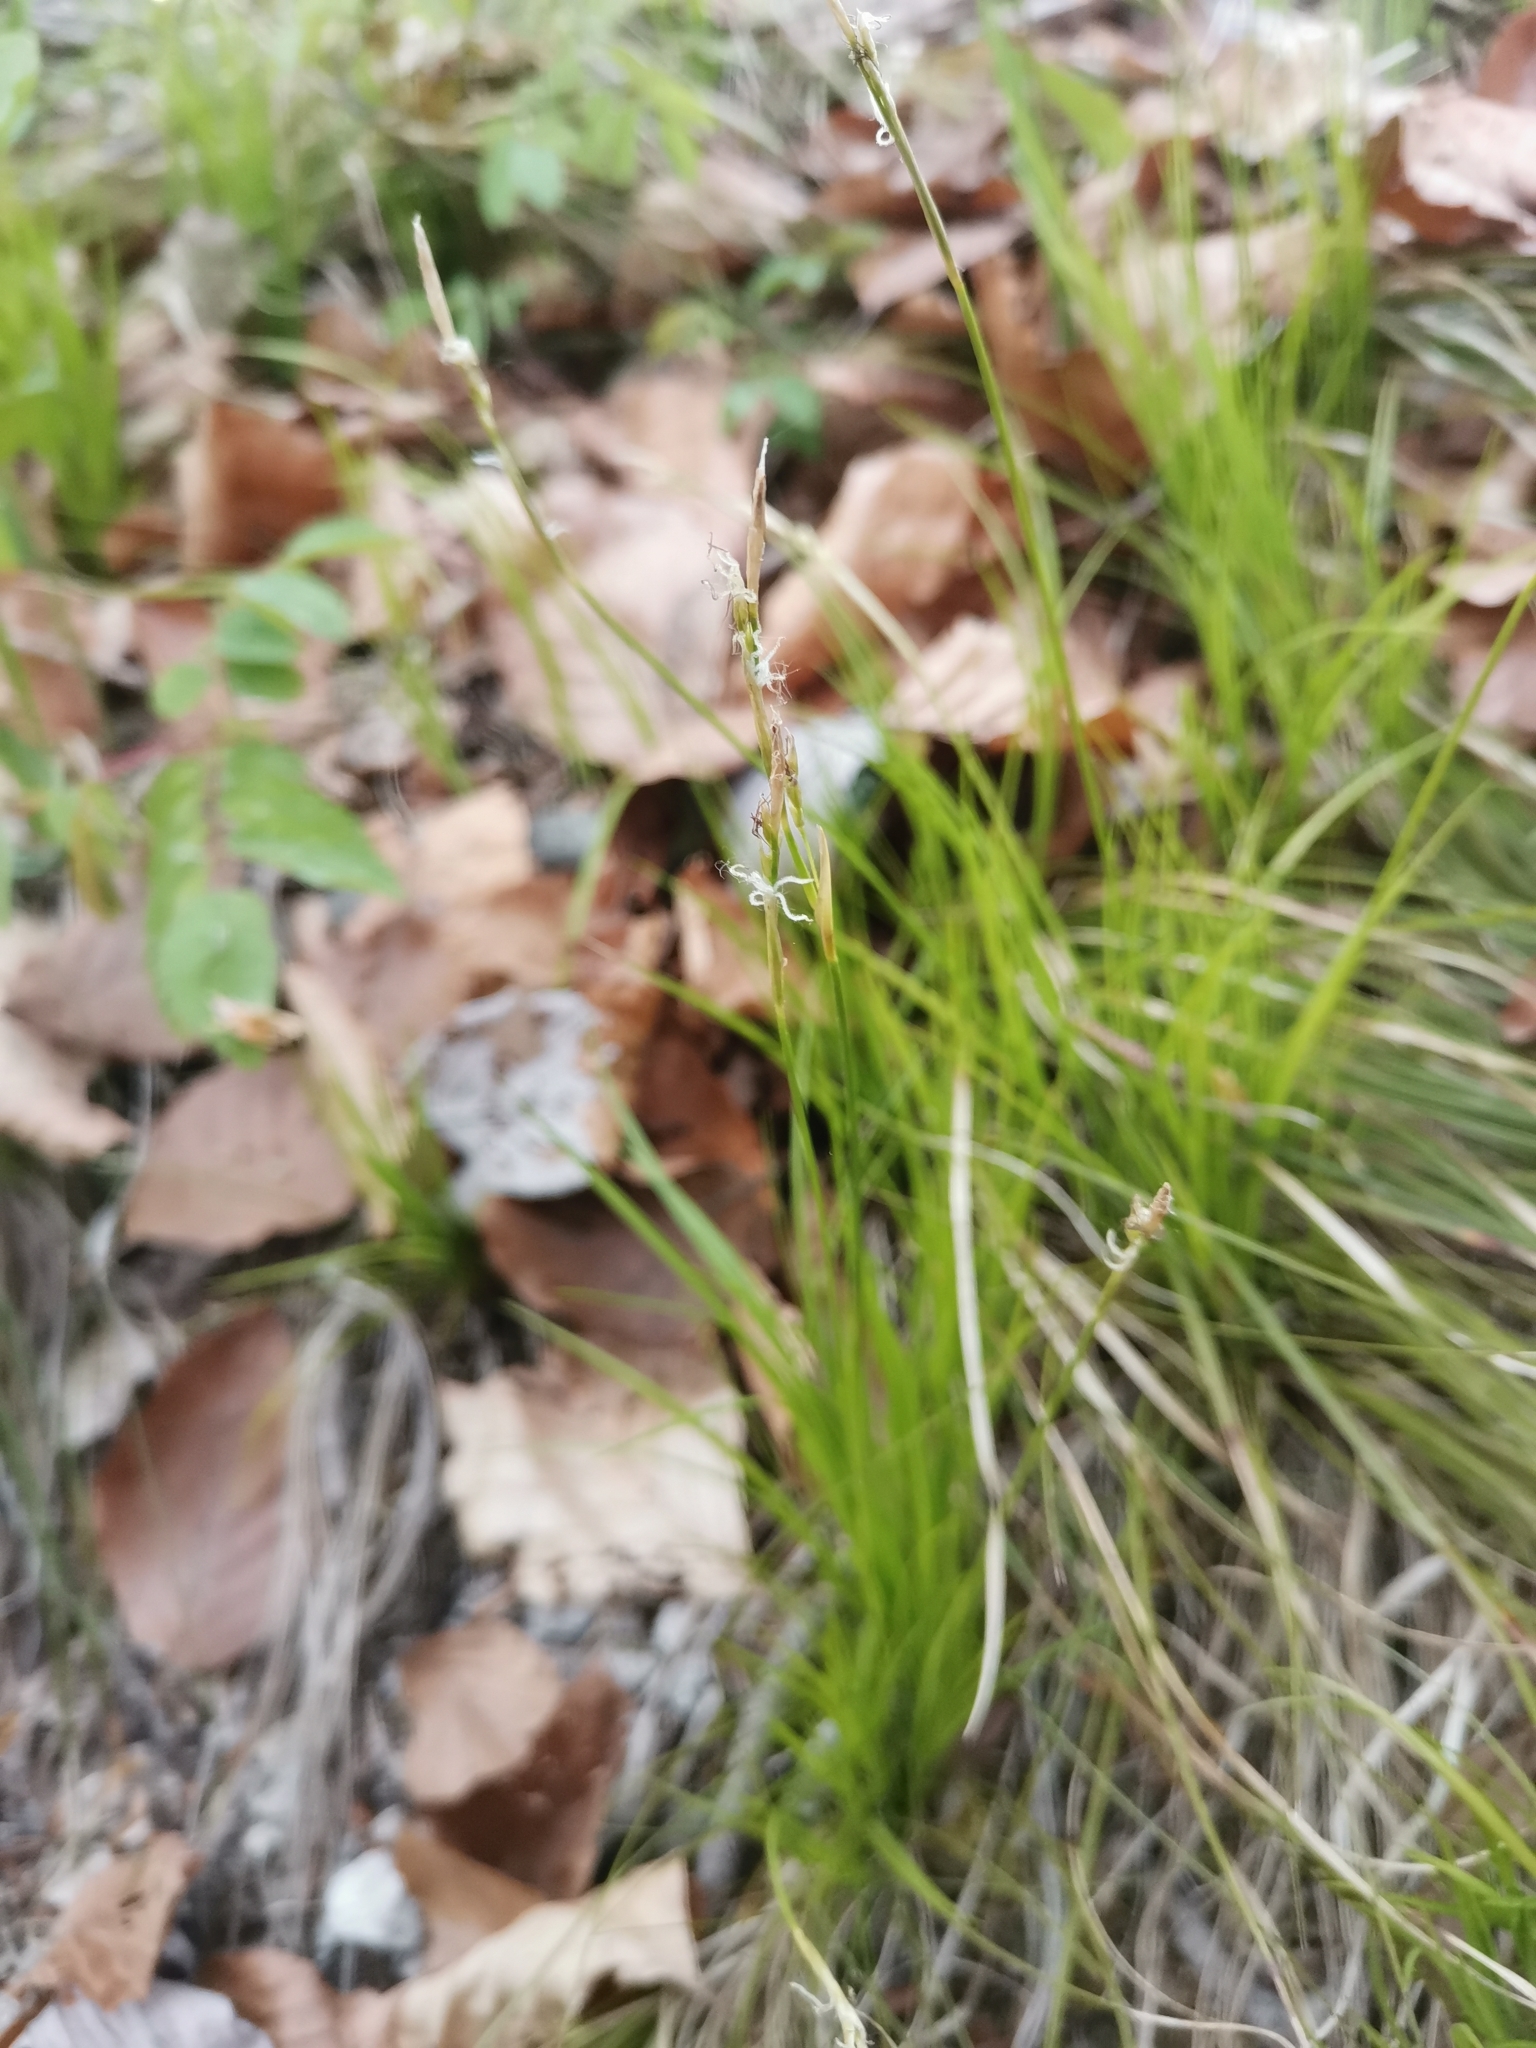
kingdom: Plantae
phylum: Tracheophyta
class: Liliopsida
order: Poales
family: Cyperaceae
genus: Carex
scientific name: Carex alba
